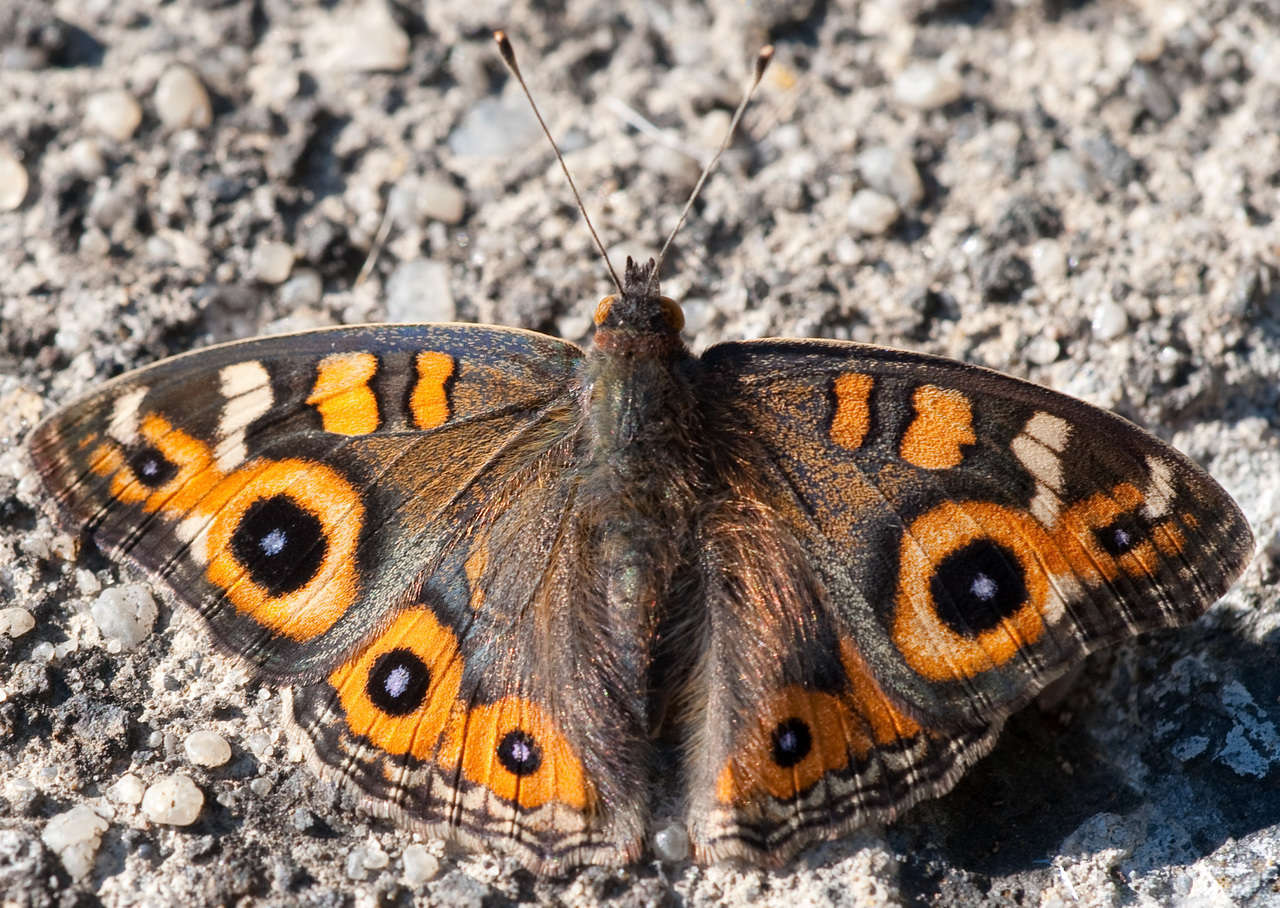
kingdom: Animalia
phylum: Arthropoda
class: Insecta
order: Lepidoptera
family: Nymphalidae
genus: Junonia
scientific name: Junonia villida
